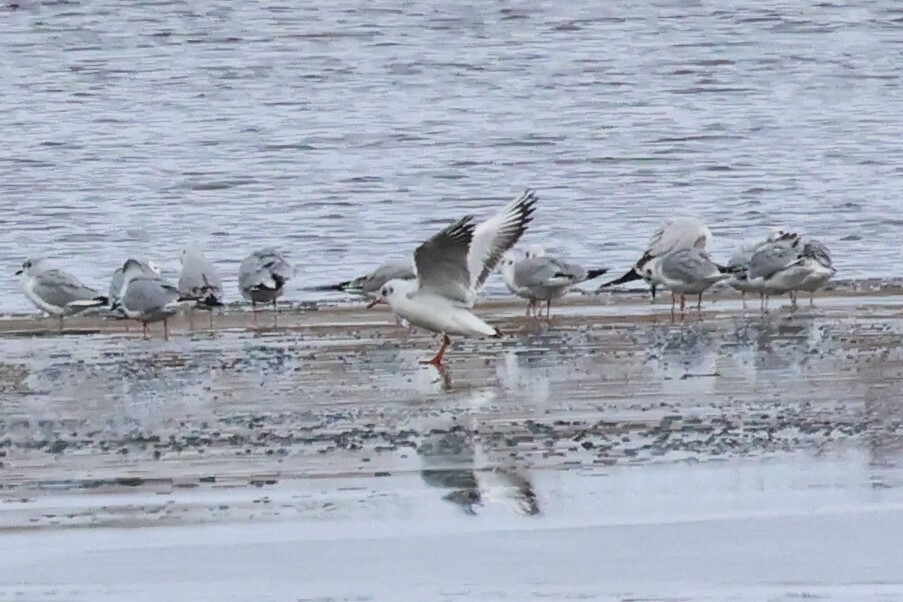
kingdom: Animalia
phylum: Chordata
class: Aves
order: Charadriiformes
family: Laridae
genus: Chroicocephalus
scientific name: Chroicocephalus ridibundus
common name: Black-headed gull
